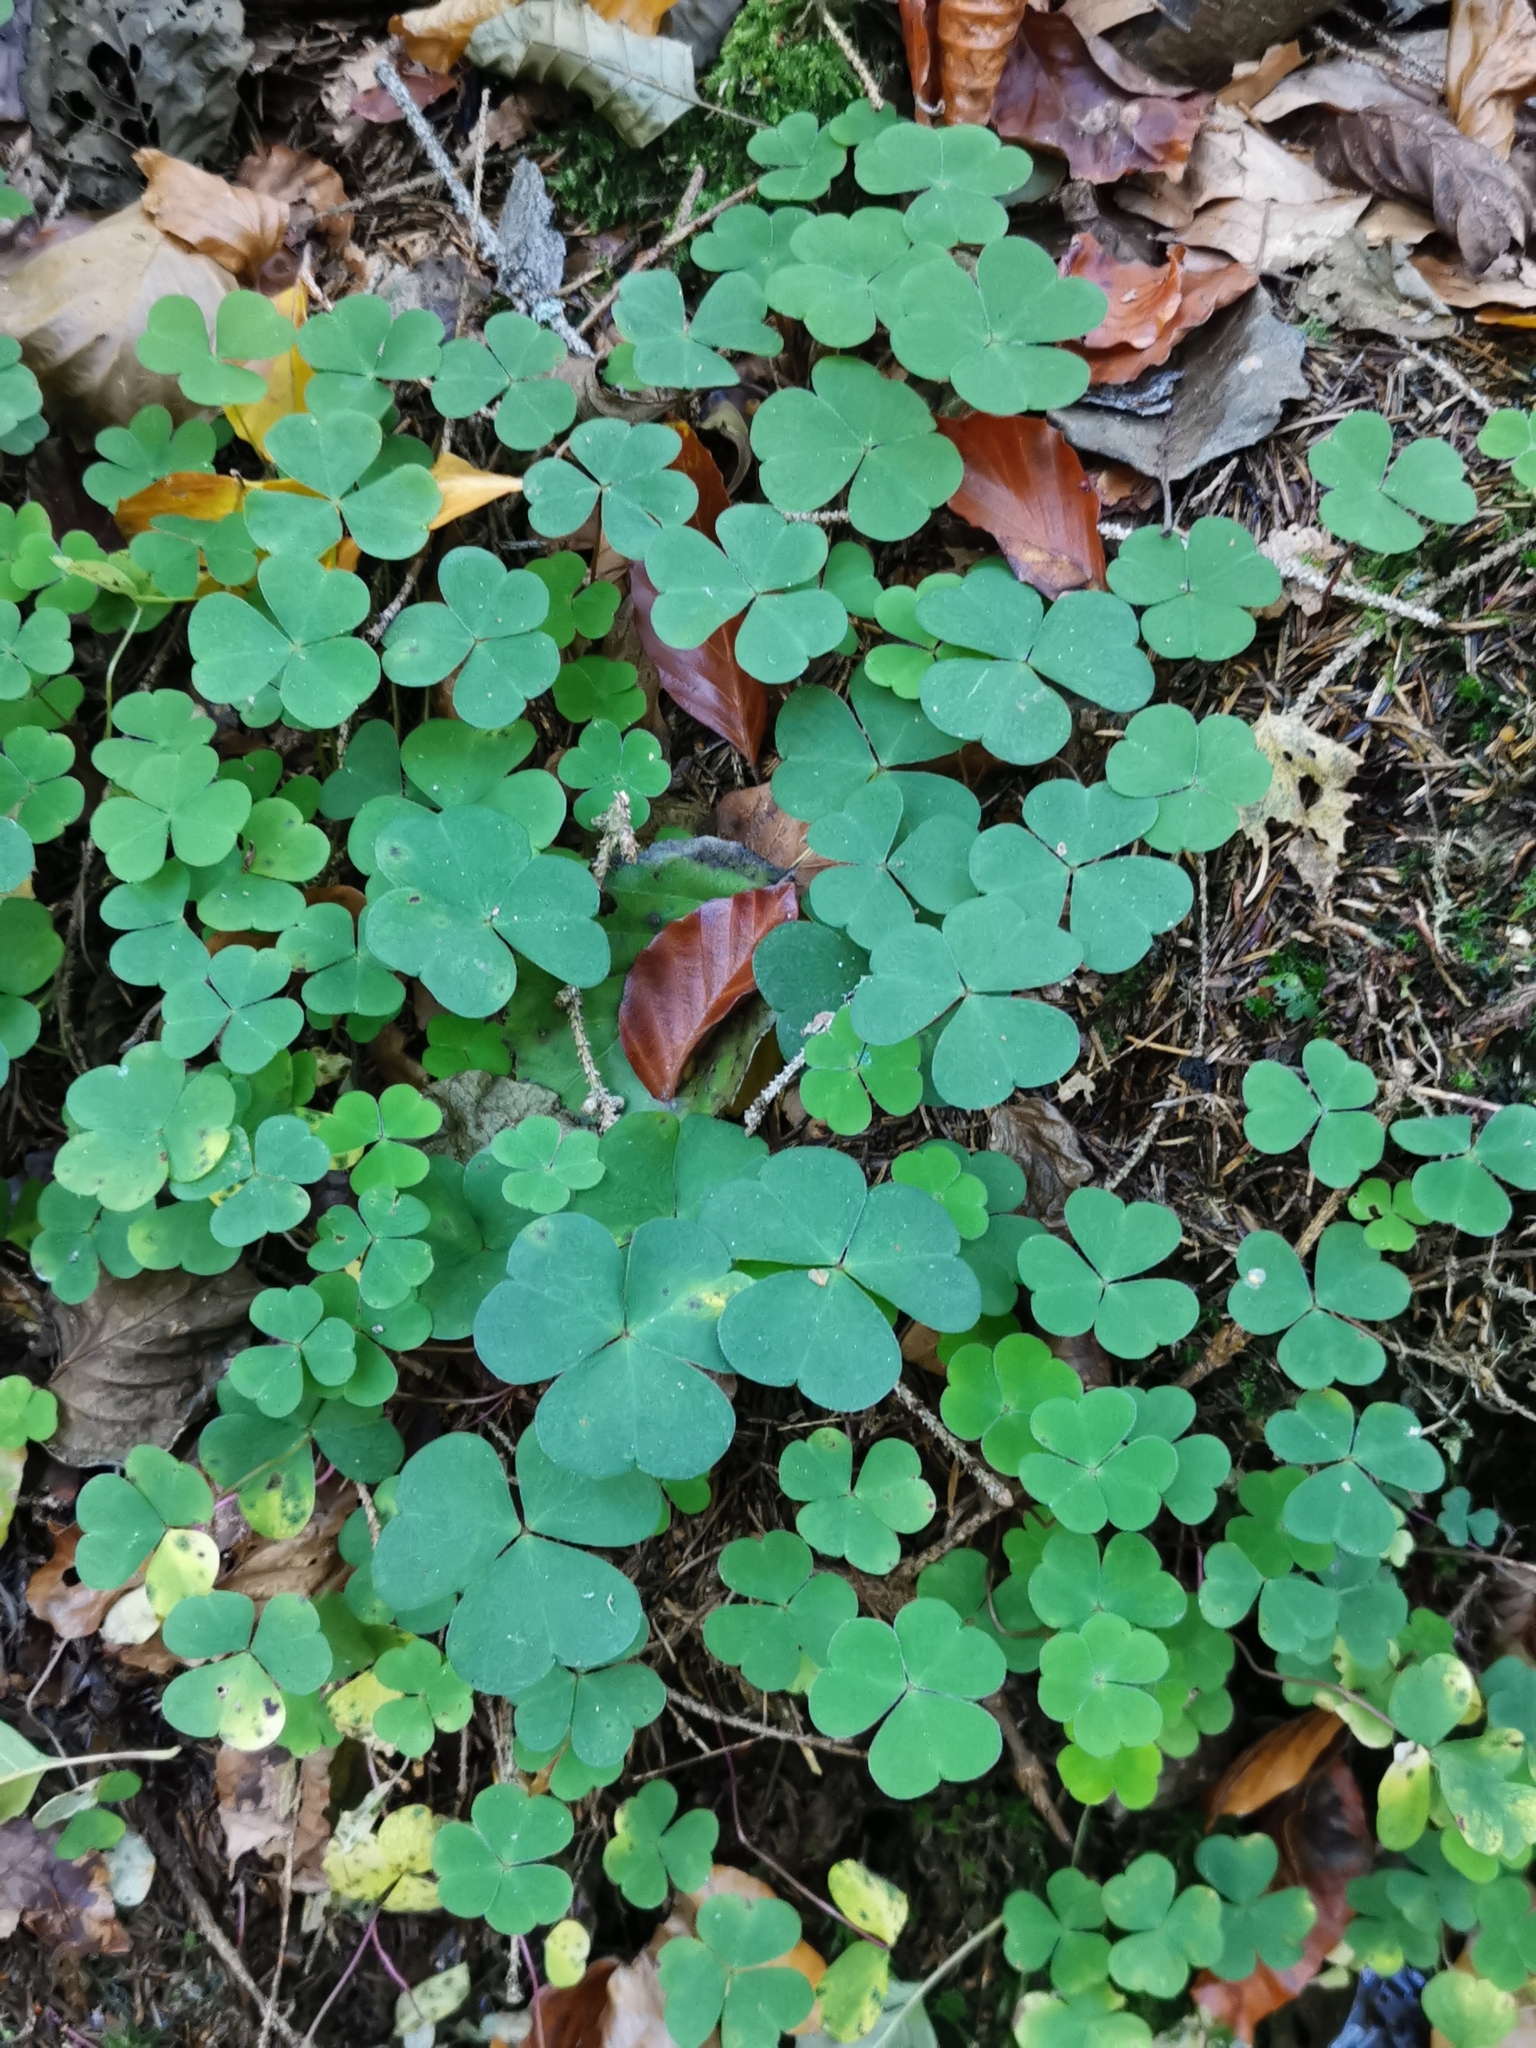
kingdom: Plantae
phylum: Tracheophyta
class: Magnoliopsida
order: Oxalidales
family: Oxalidaceae
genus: Oxalis
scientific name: Oxalis acetosella
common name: Wood-sorrel
